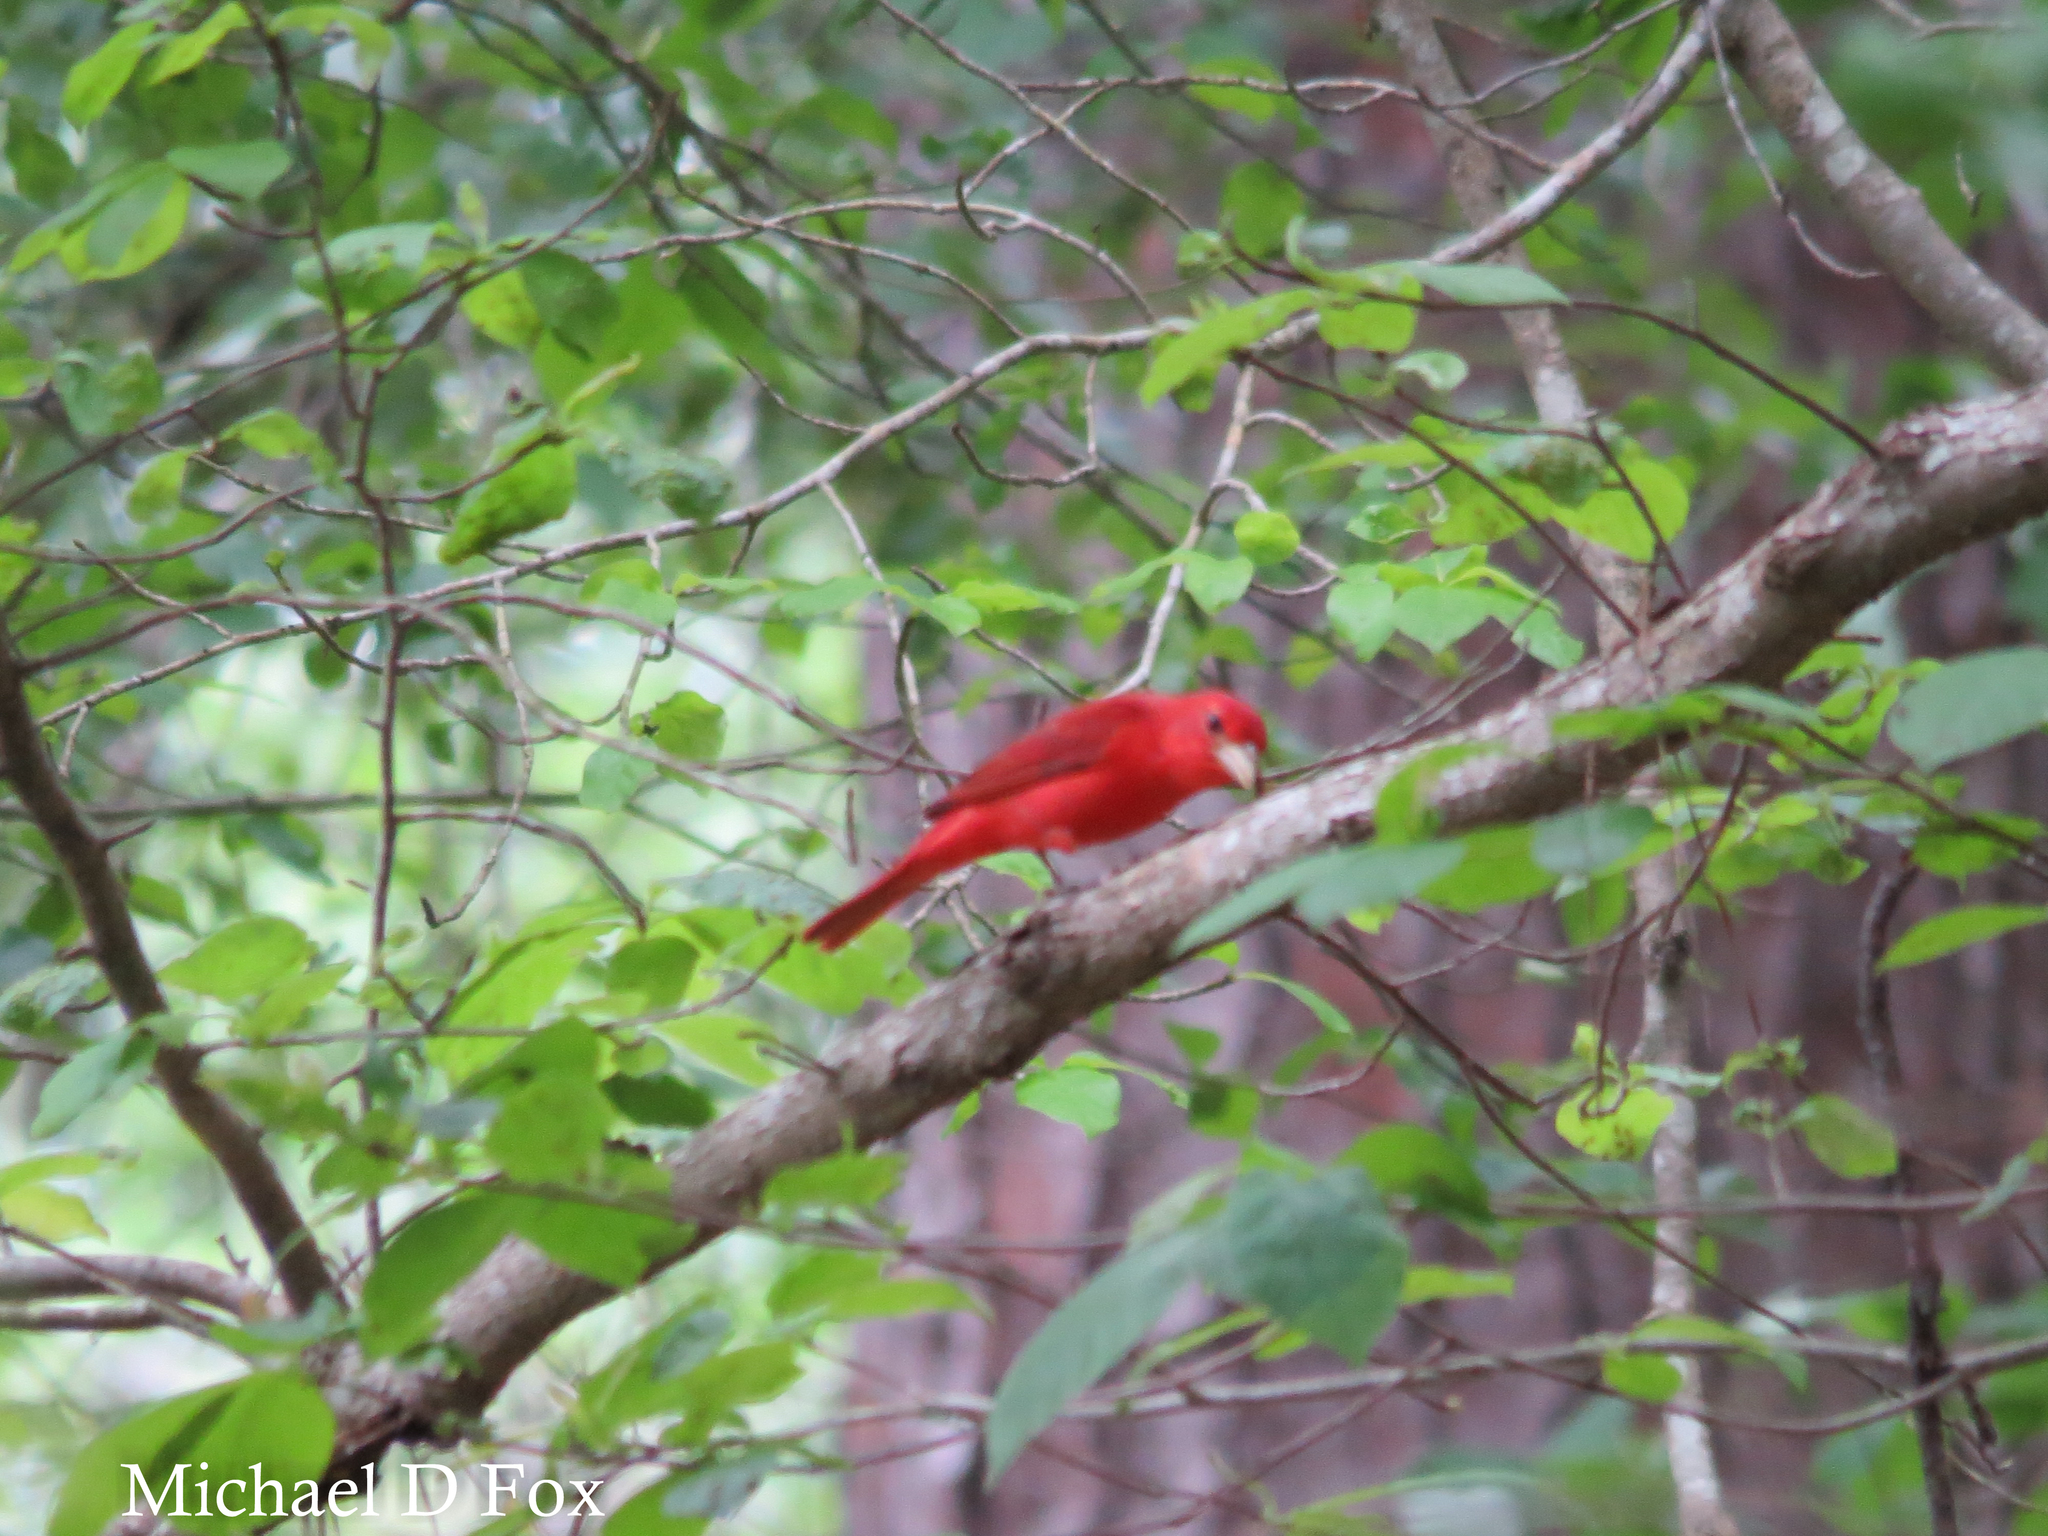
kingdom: Animalia
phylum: Chordata
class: Aves
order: Passeriformes
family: Cardinalidae
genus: Piranga
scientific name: Piranga rubra
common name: Summer tanager
